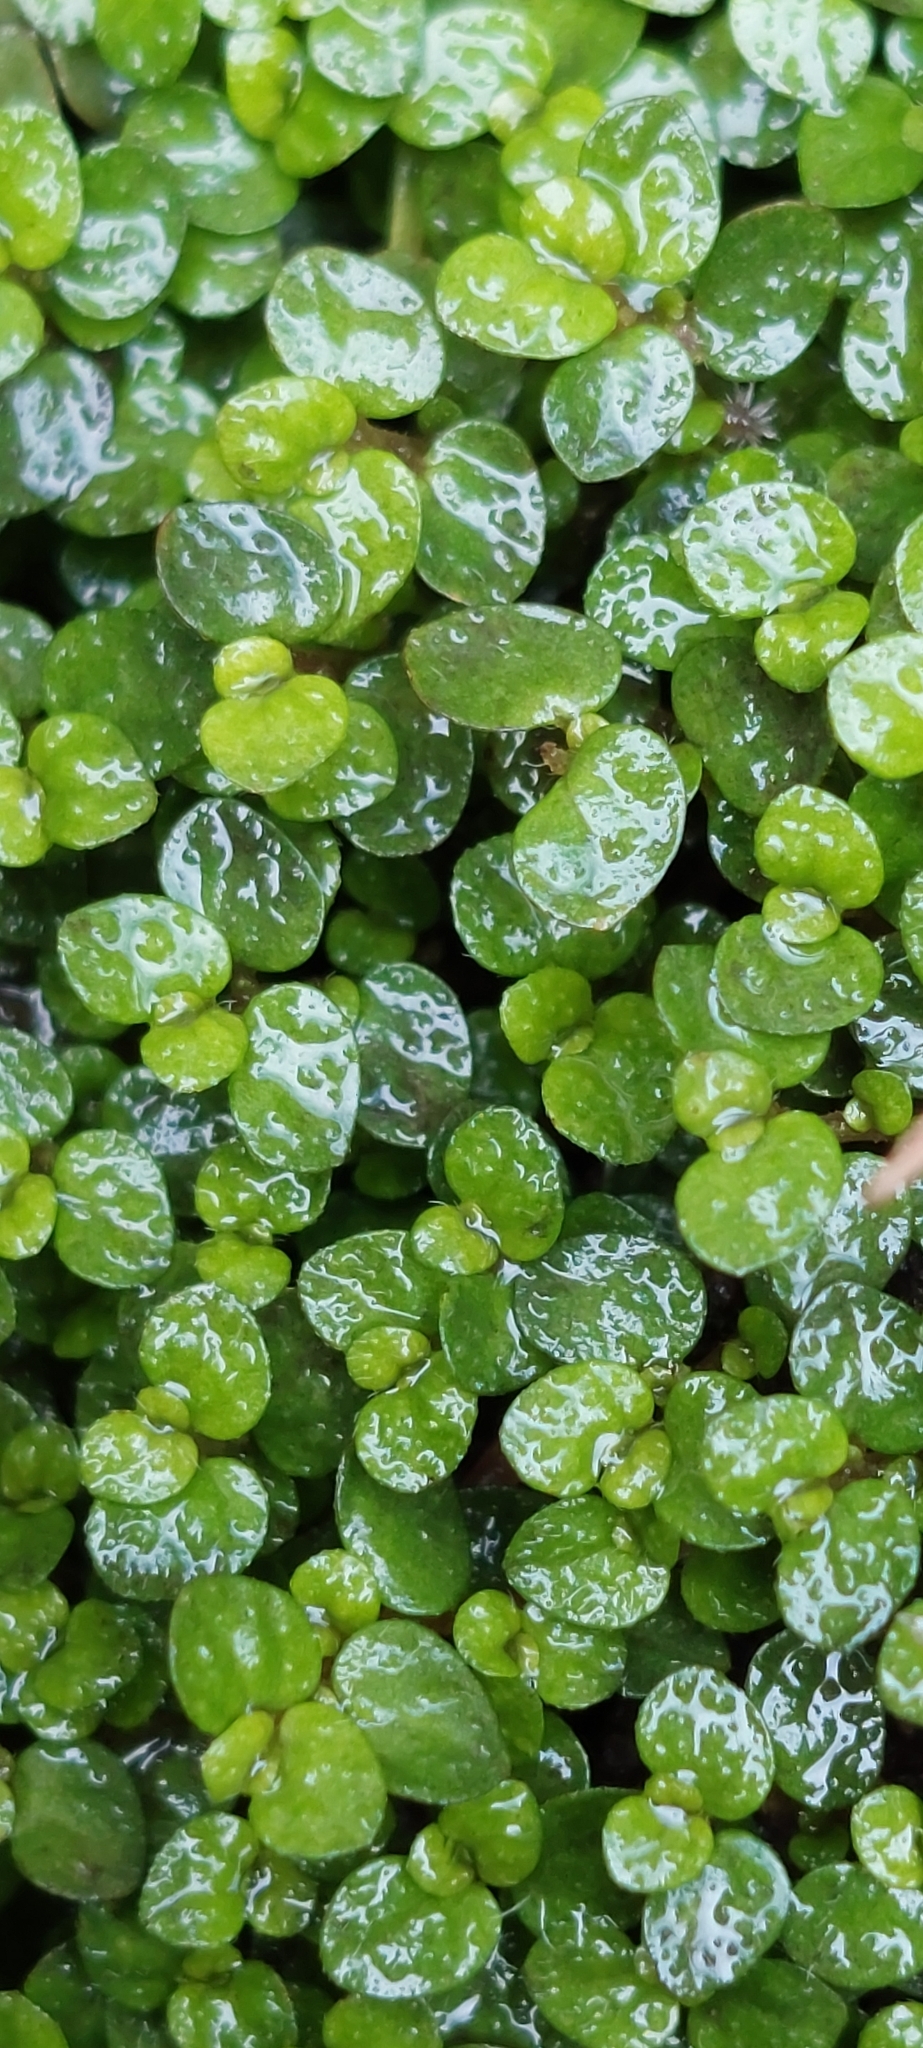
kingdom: Plantae
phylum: Tracheophyta
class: Magnoliopsida
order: Rosales
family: Urticaceae
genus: Soleirolia
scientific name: Soleirolia soleirolii
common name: Mind-your-own-business
